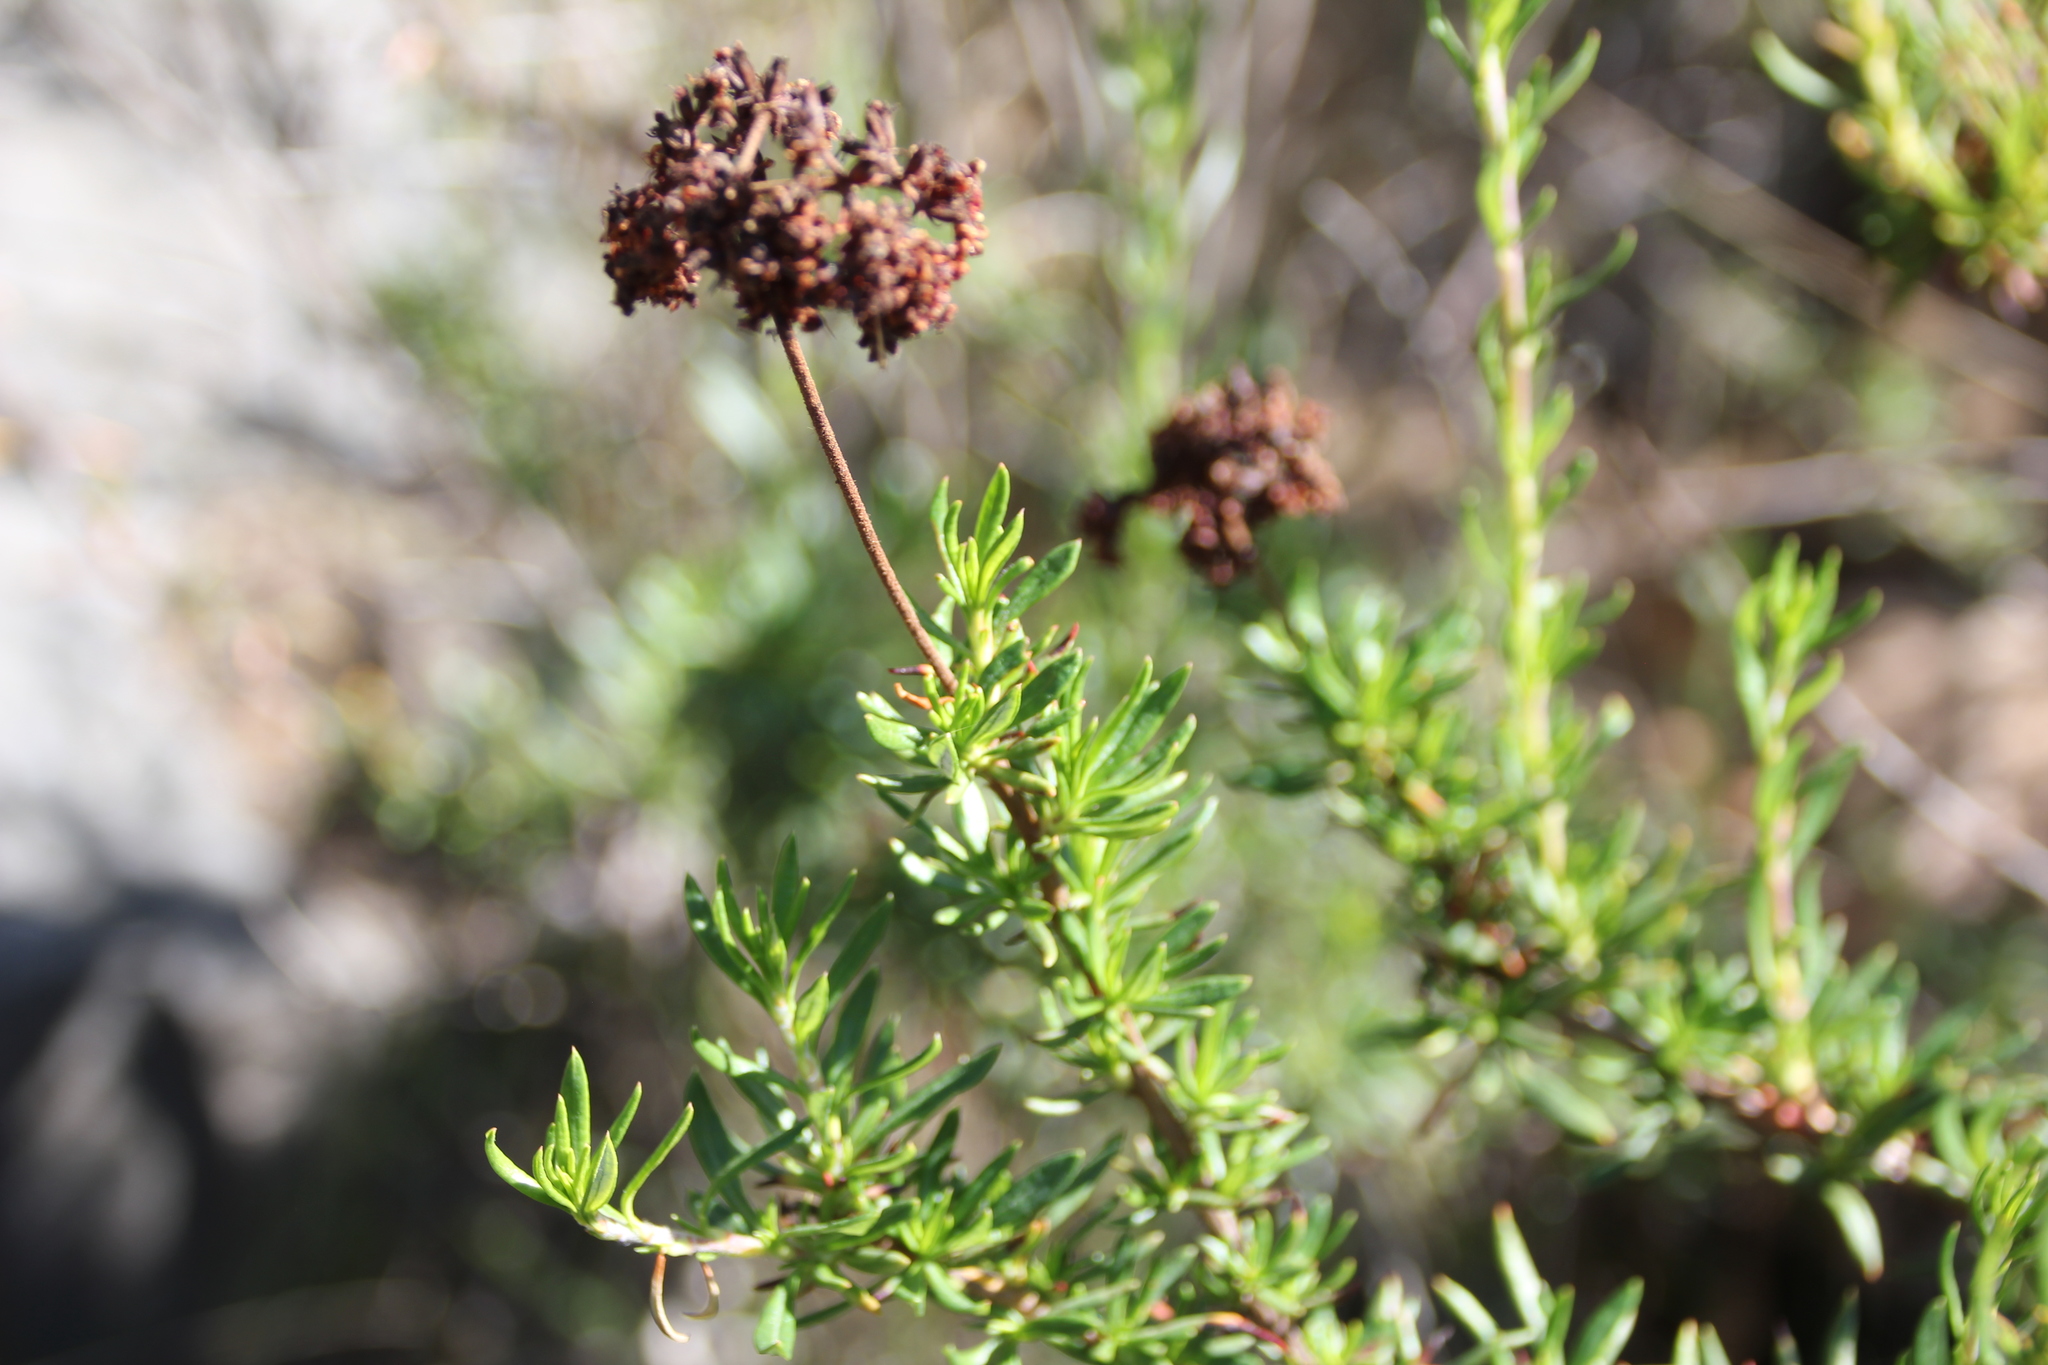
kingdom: Plantae
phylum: Tracheophyta
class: Magnoliopsida
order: Caryophyllales
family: Polygonaceae
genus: Eriogonum
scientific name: Eriogonum fasciculatum
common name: California wild buckwheat
